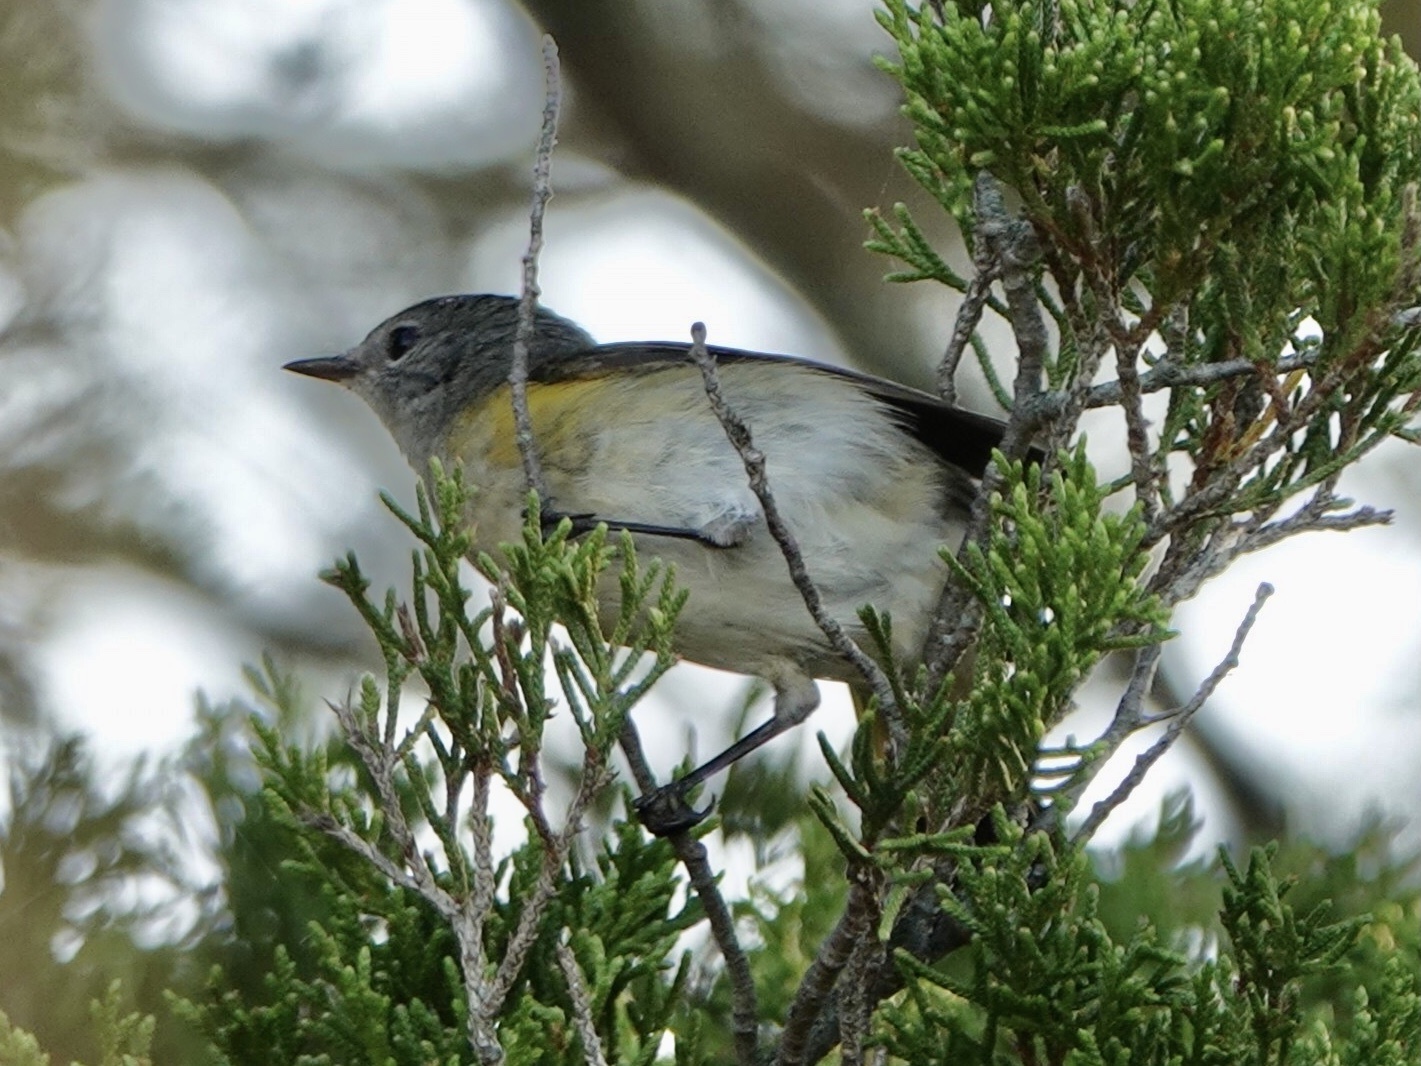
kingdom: Animalia
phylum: Chordata
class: Aves
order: Passeriformes
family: Parulidae
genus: Setophaga
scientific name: Setophaga ruticilla
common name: American redstart
